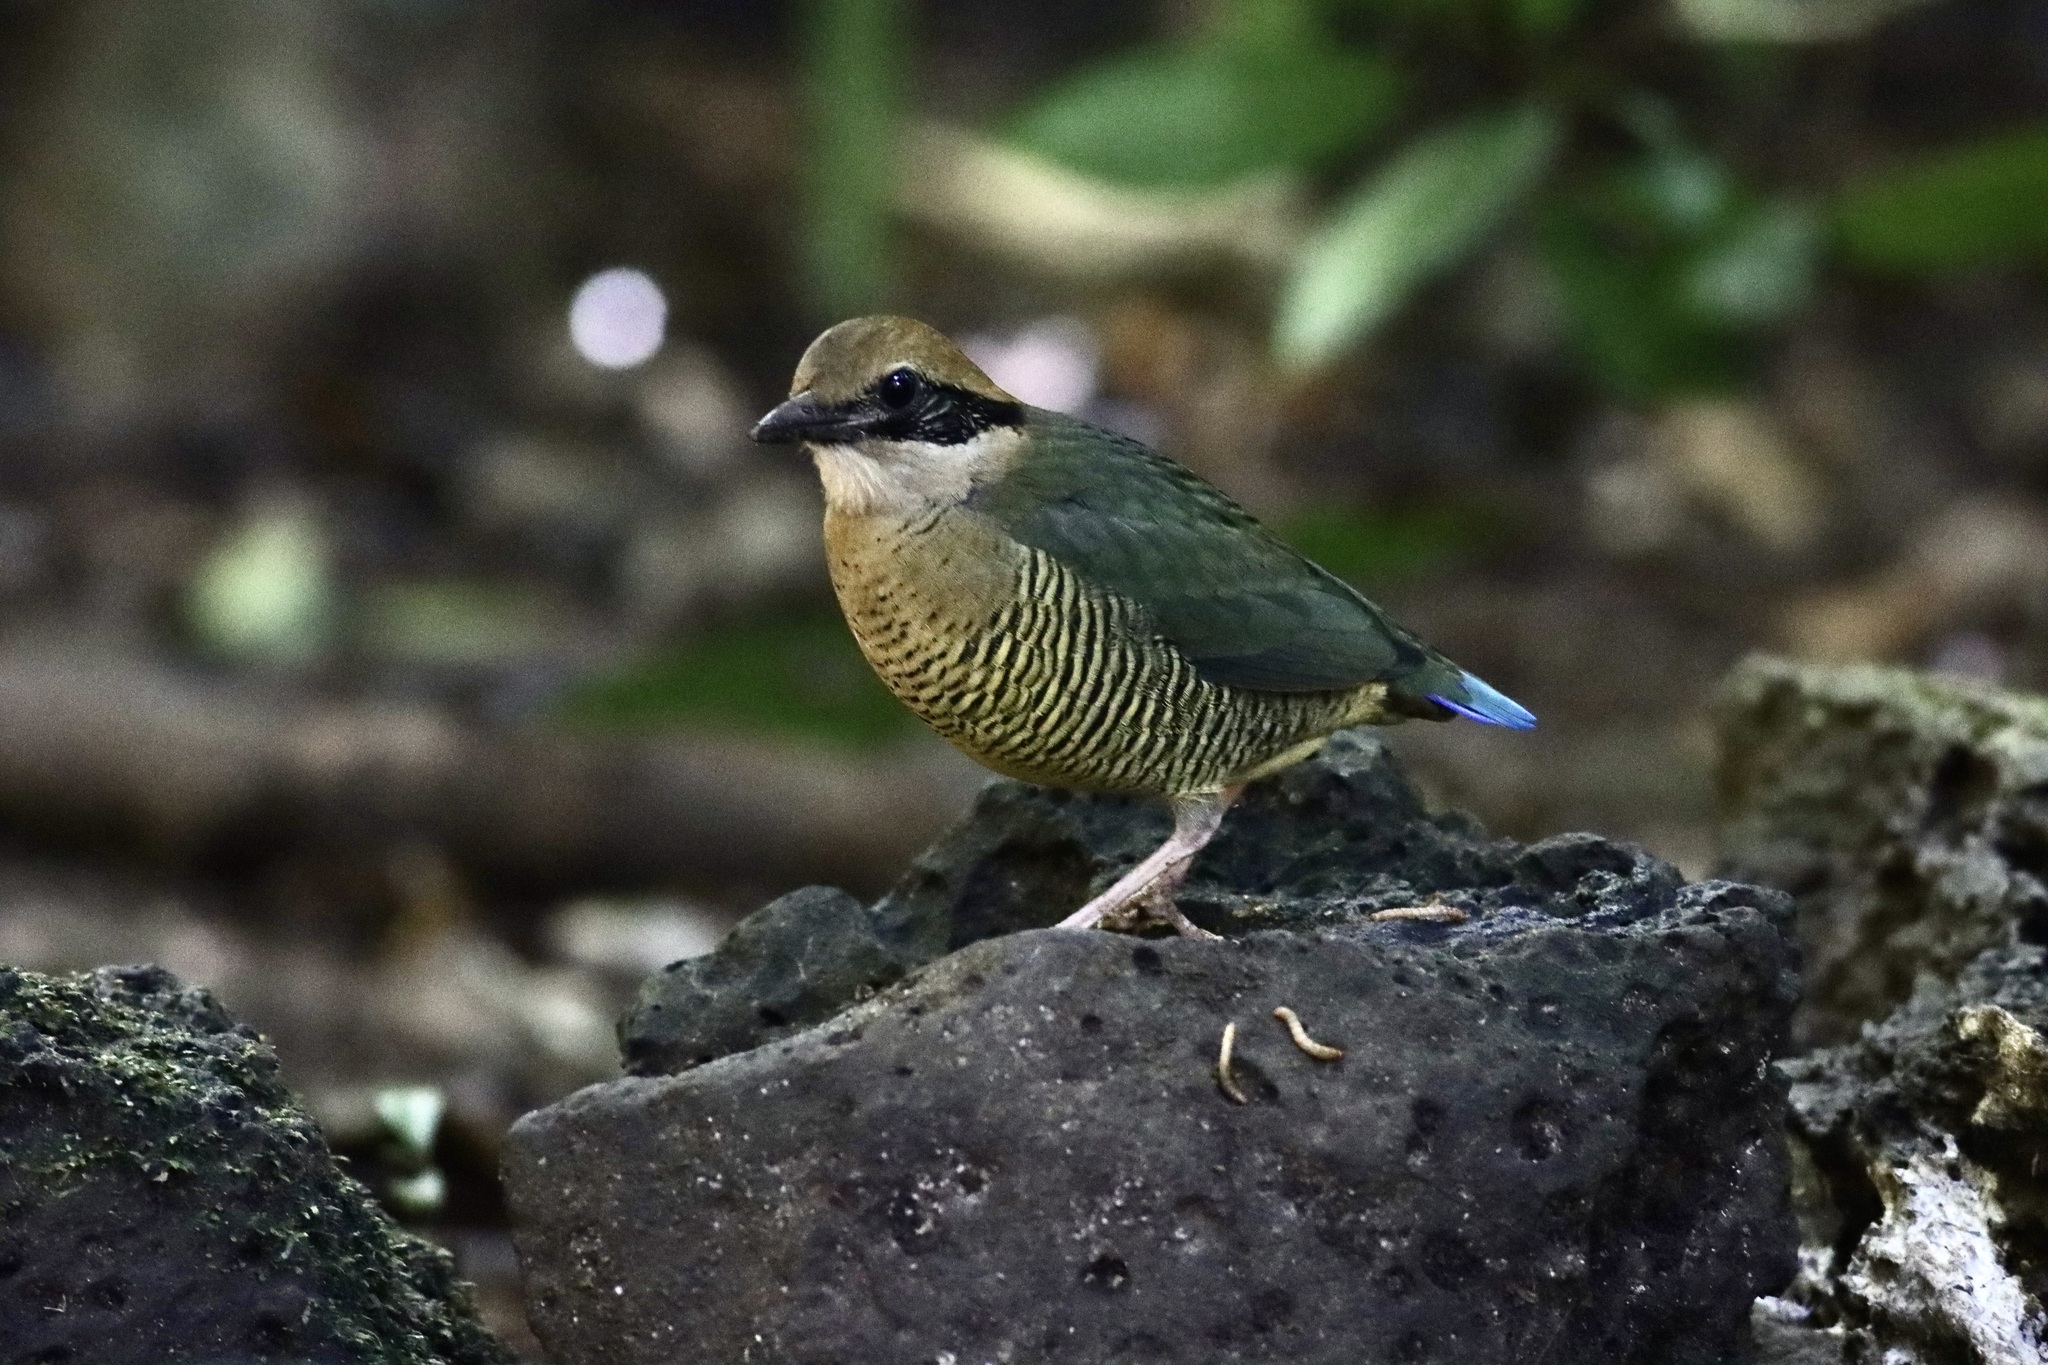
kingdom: Animalia
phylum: Chordata
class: Aves
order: Passeriformes
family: Pittidae
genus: Pitta
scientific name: Pitta elliotii
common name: Bar-bellied pitta
